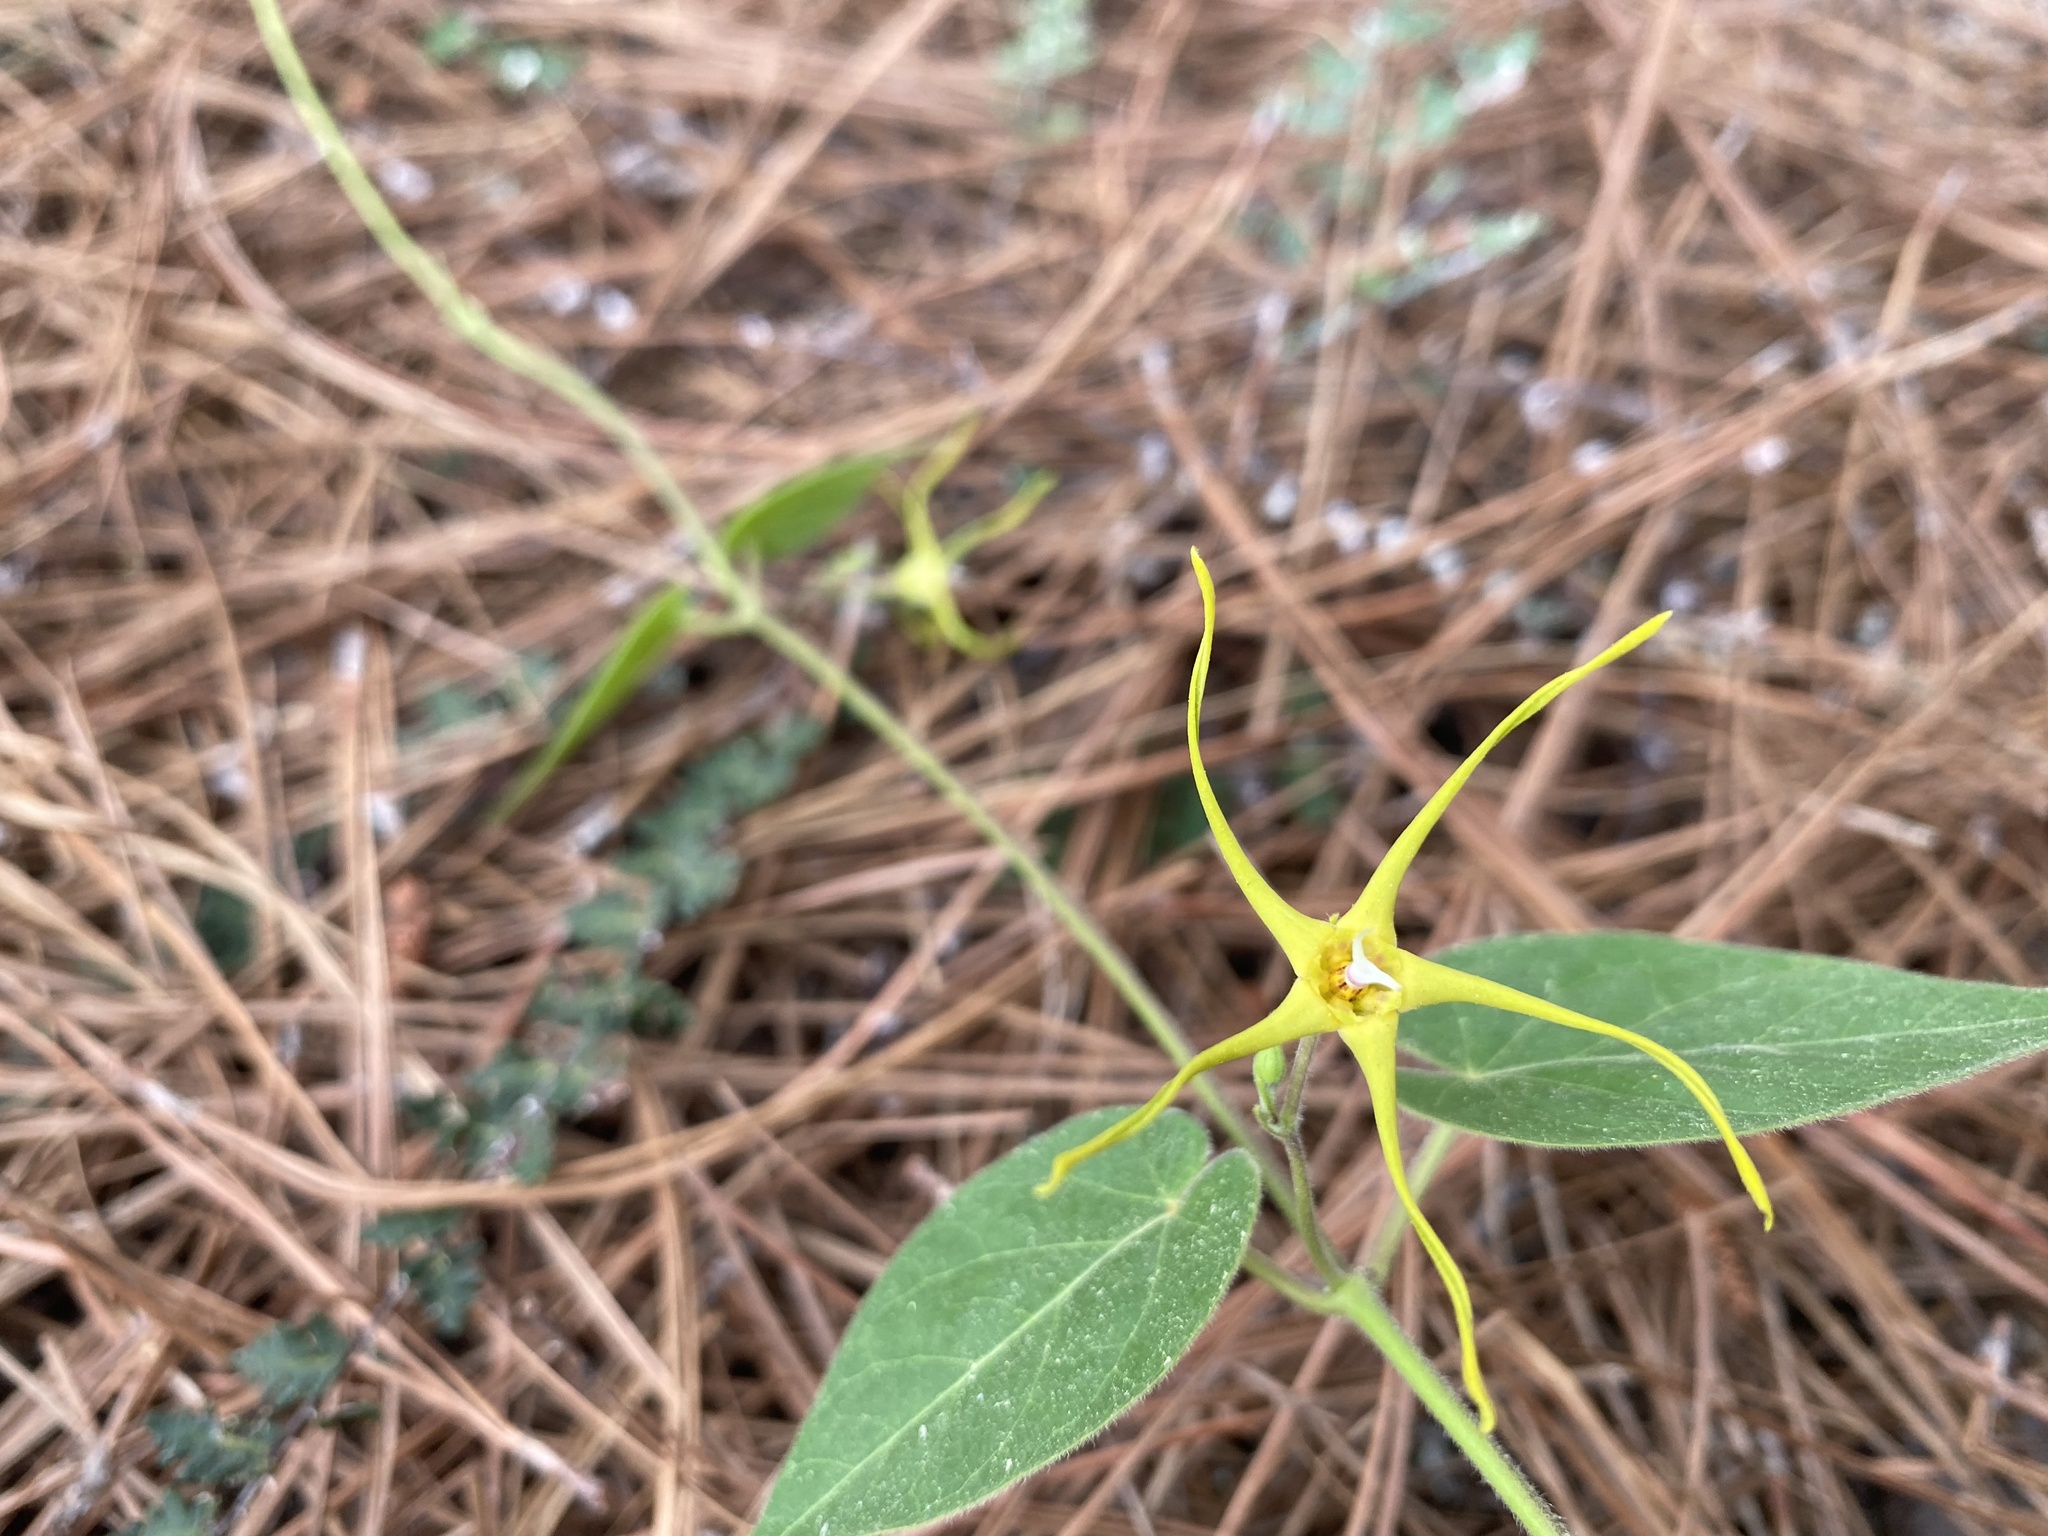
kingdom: Plantae
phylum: Tracheophyta
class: Magnoliopsida
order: Gentianales
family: Apocynaceae
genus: Oxypetalum
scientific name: Oxypetalum cordifolium
